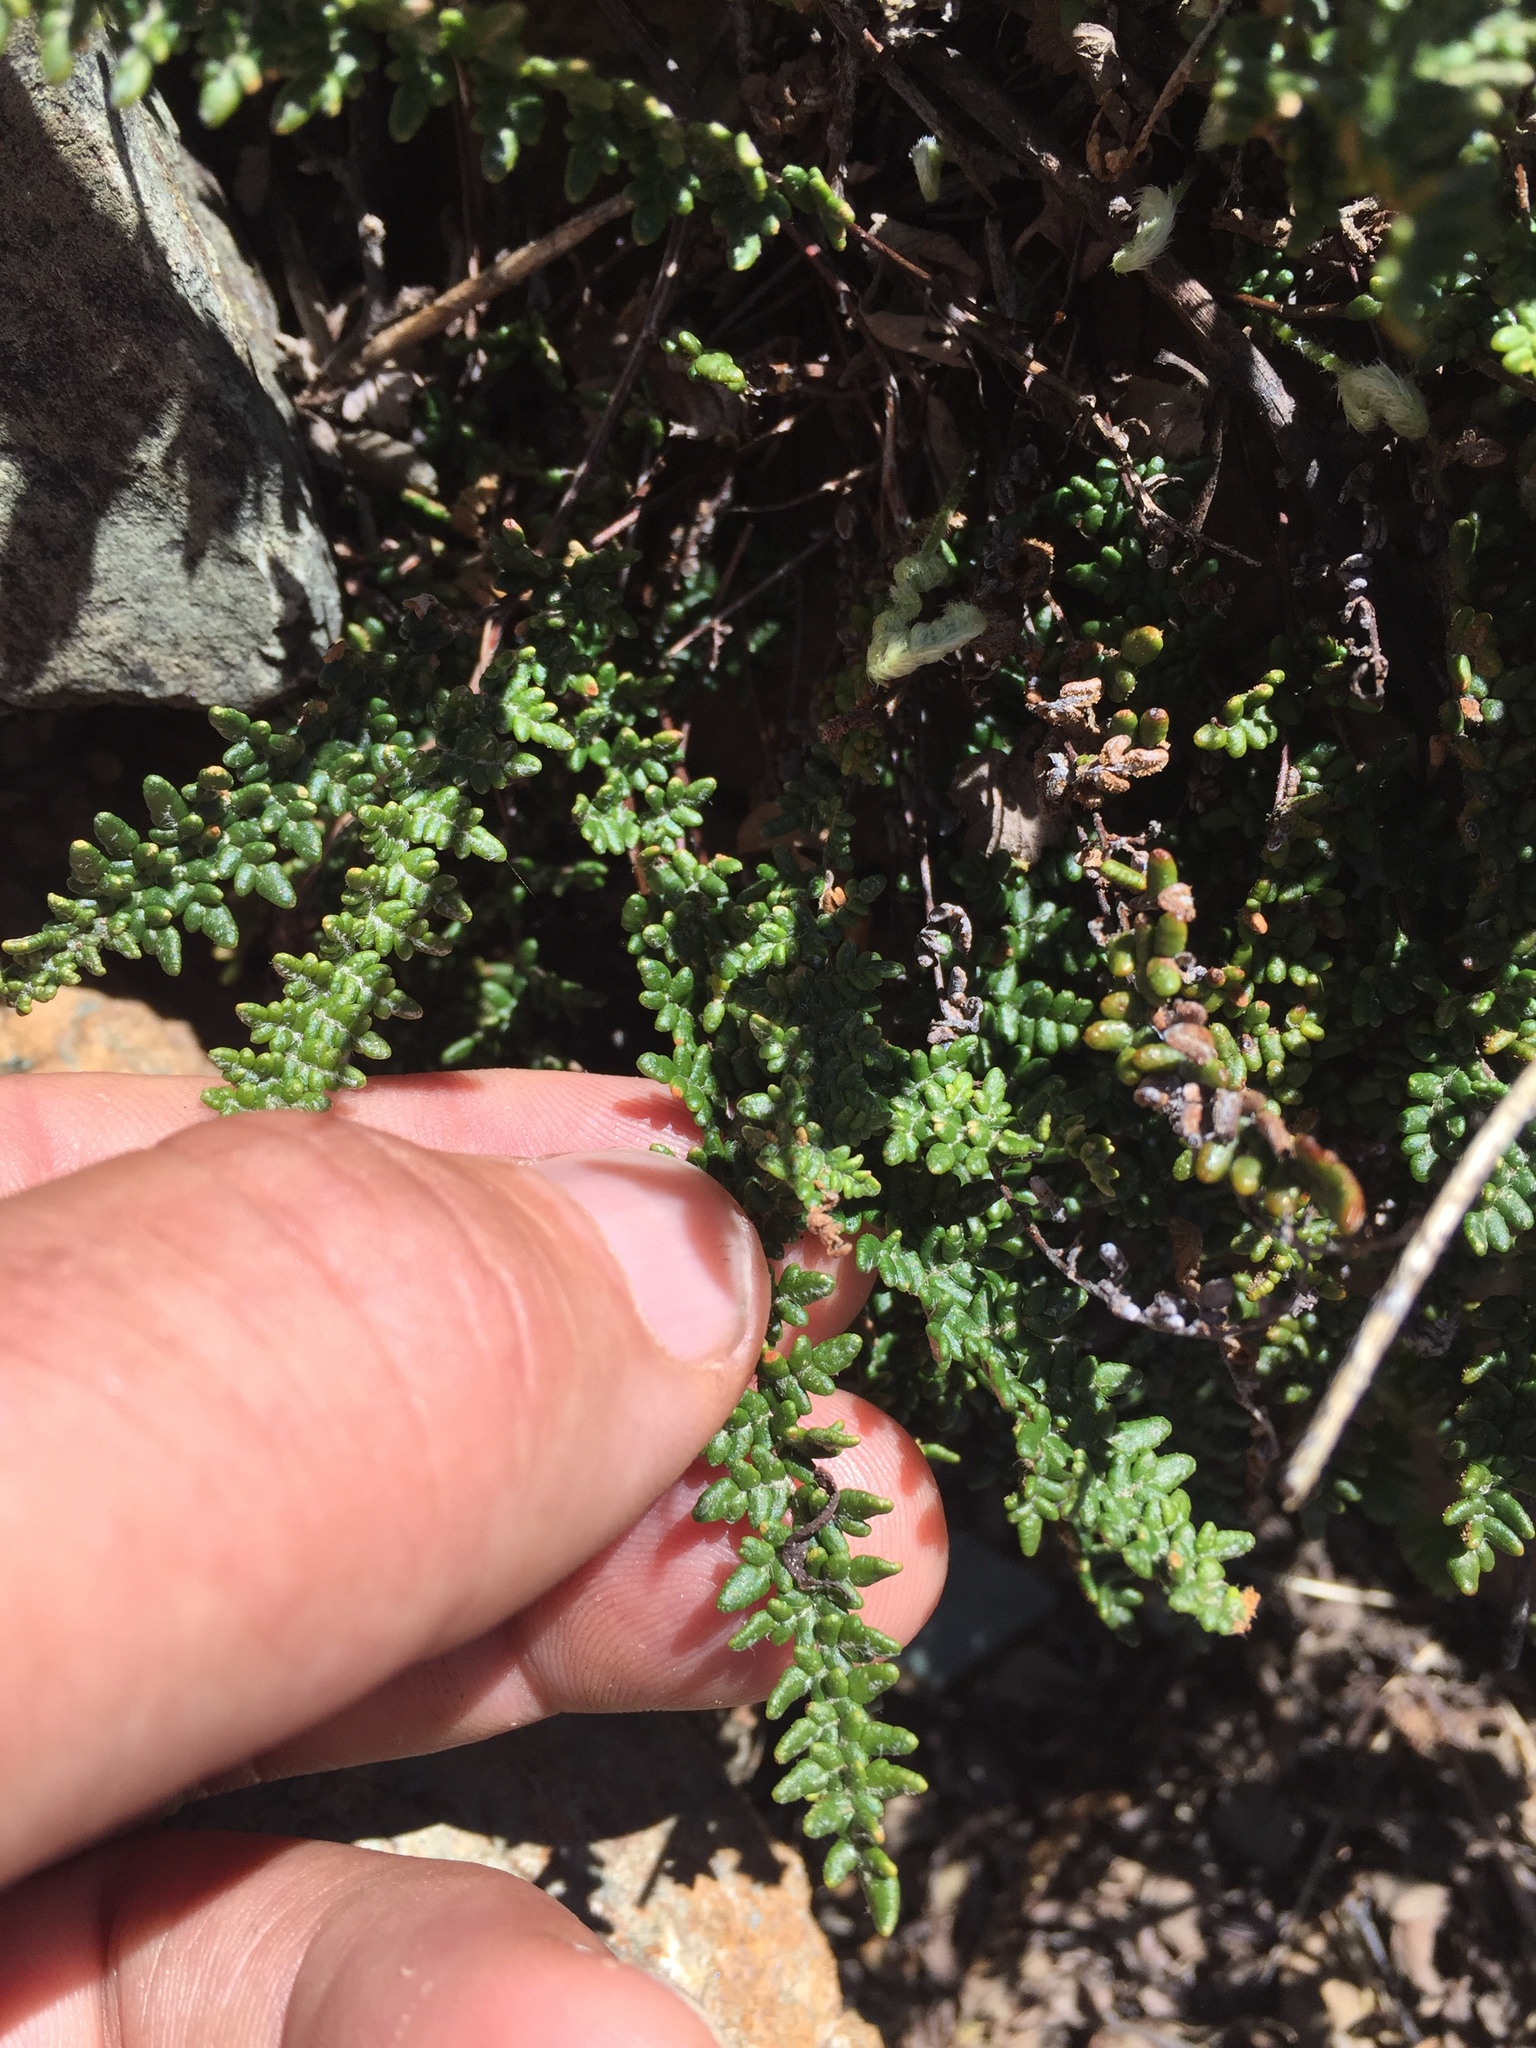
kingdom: Plantae
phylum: Tracheophyta
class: Polypodiopsida
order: Polypodiales
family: Pteridaceae
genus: Myriopteris
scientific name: Myriopteris gracillima
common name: Lace fern
